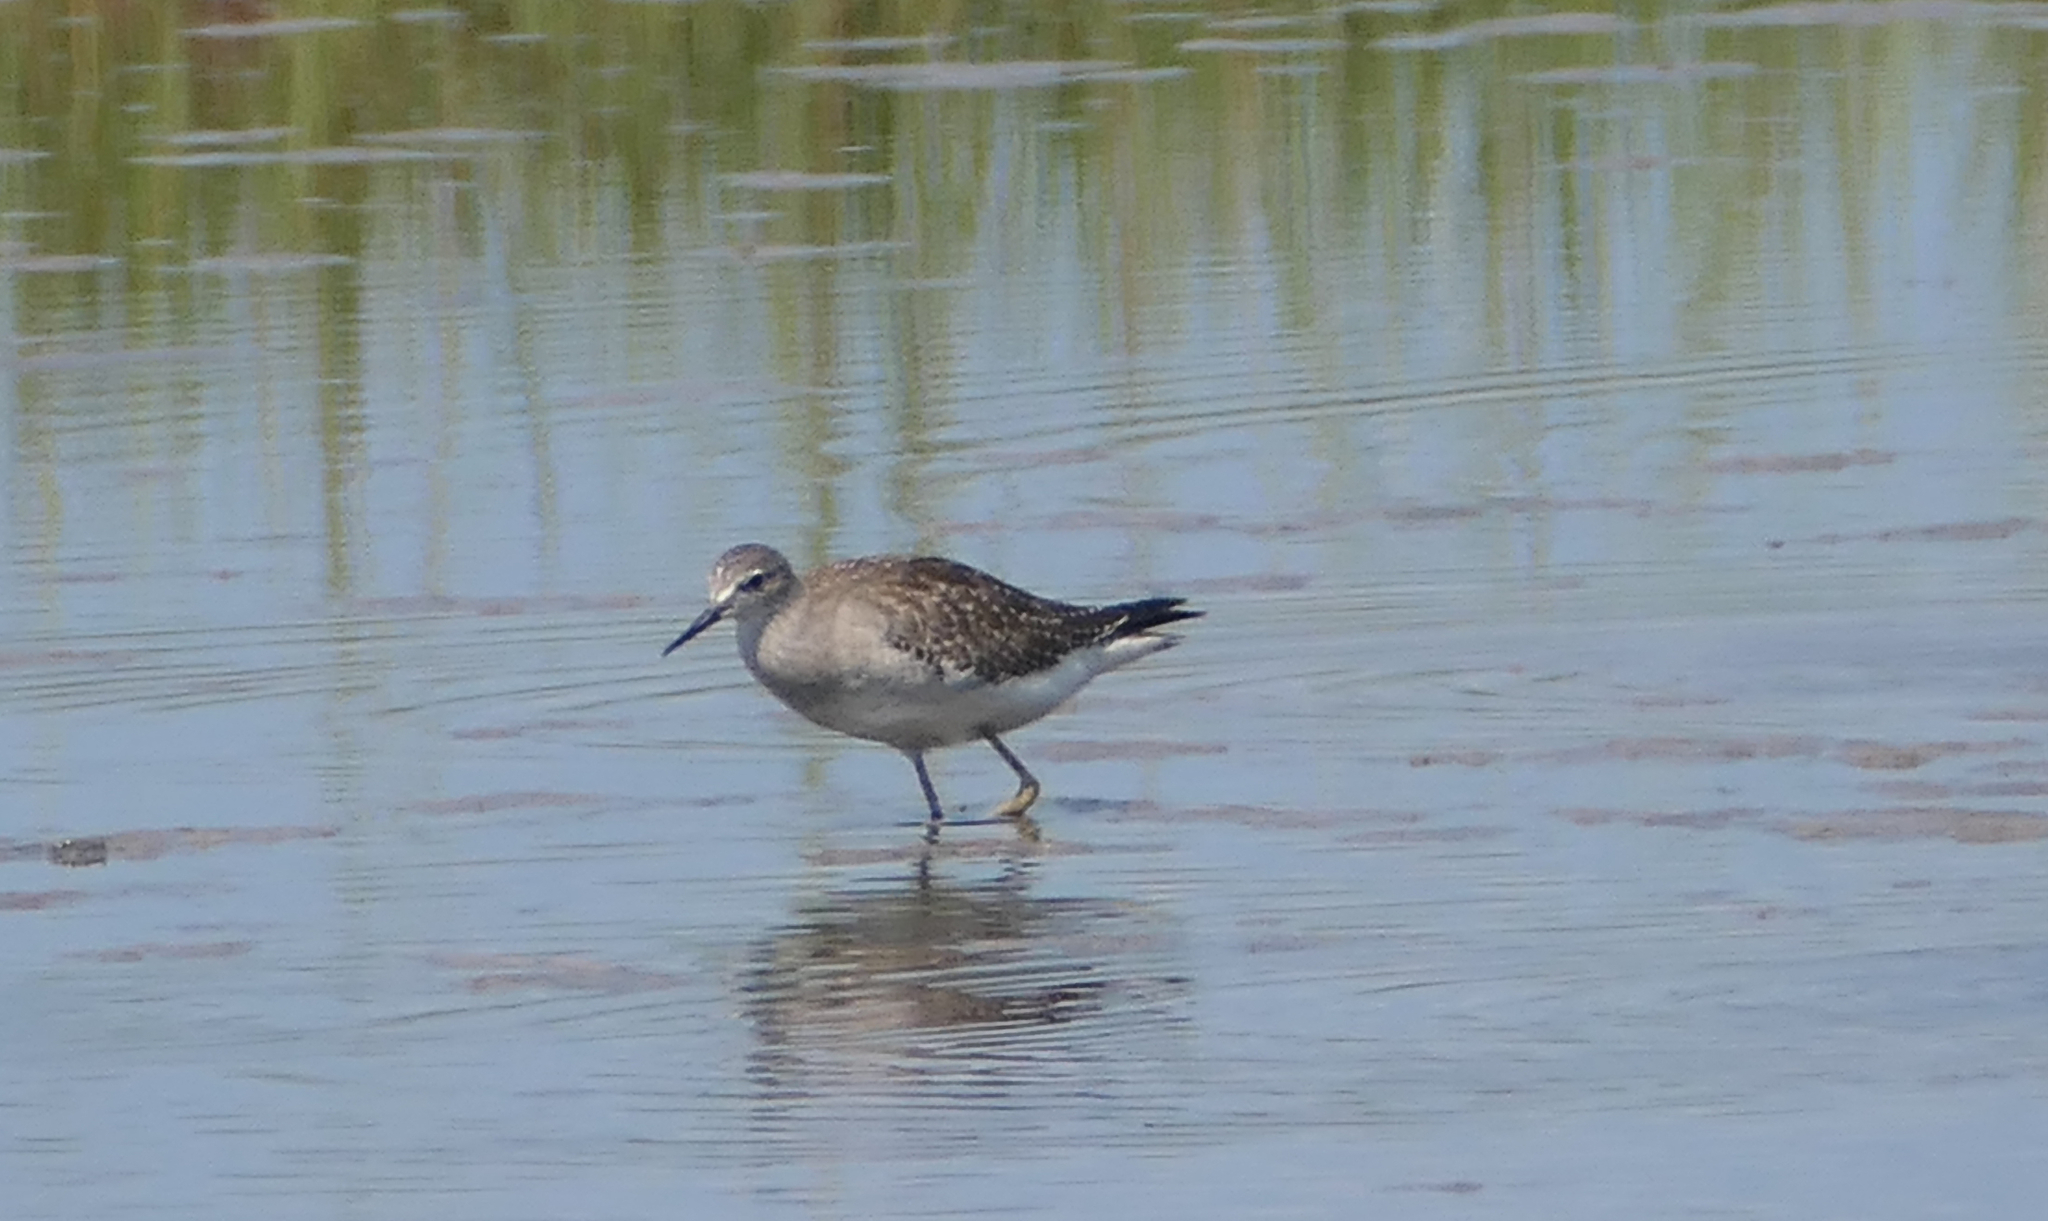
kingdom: Animalia
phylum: Chordata
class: Aves
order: Charadriiformes
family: Scolopacidae
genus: Tringa
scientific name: Tringa flavipes
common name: Lesser yellowlegs
